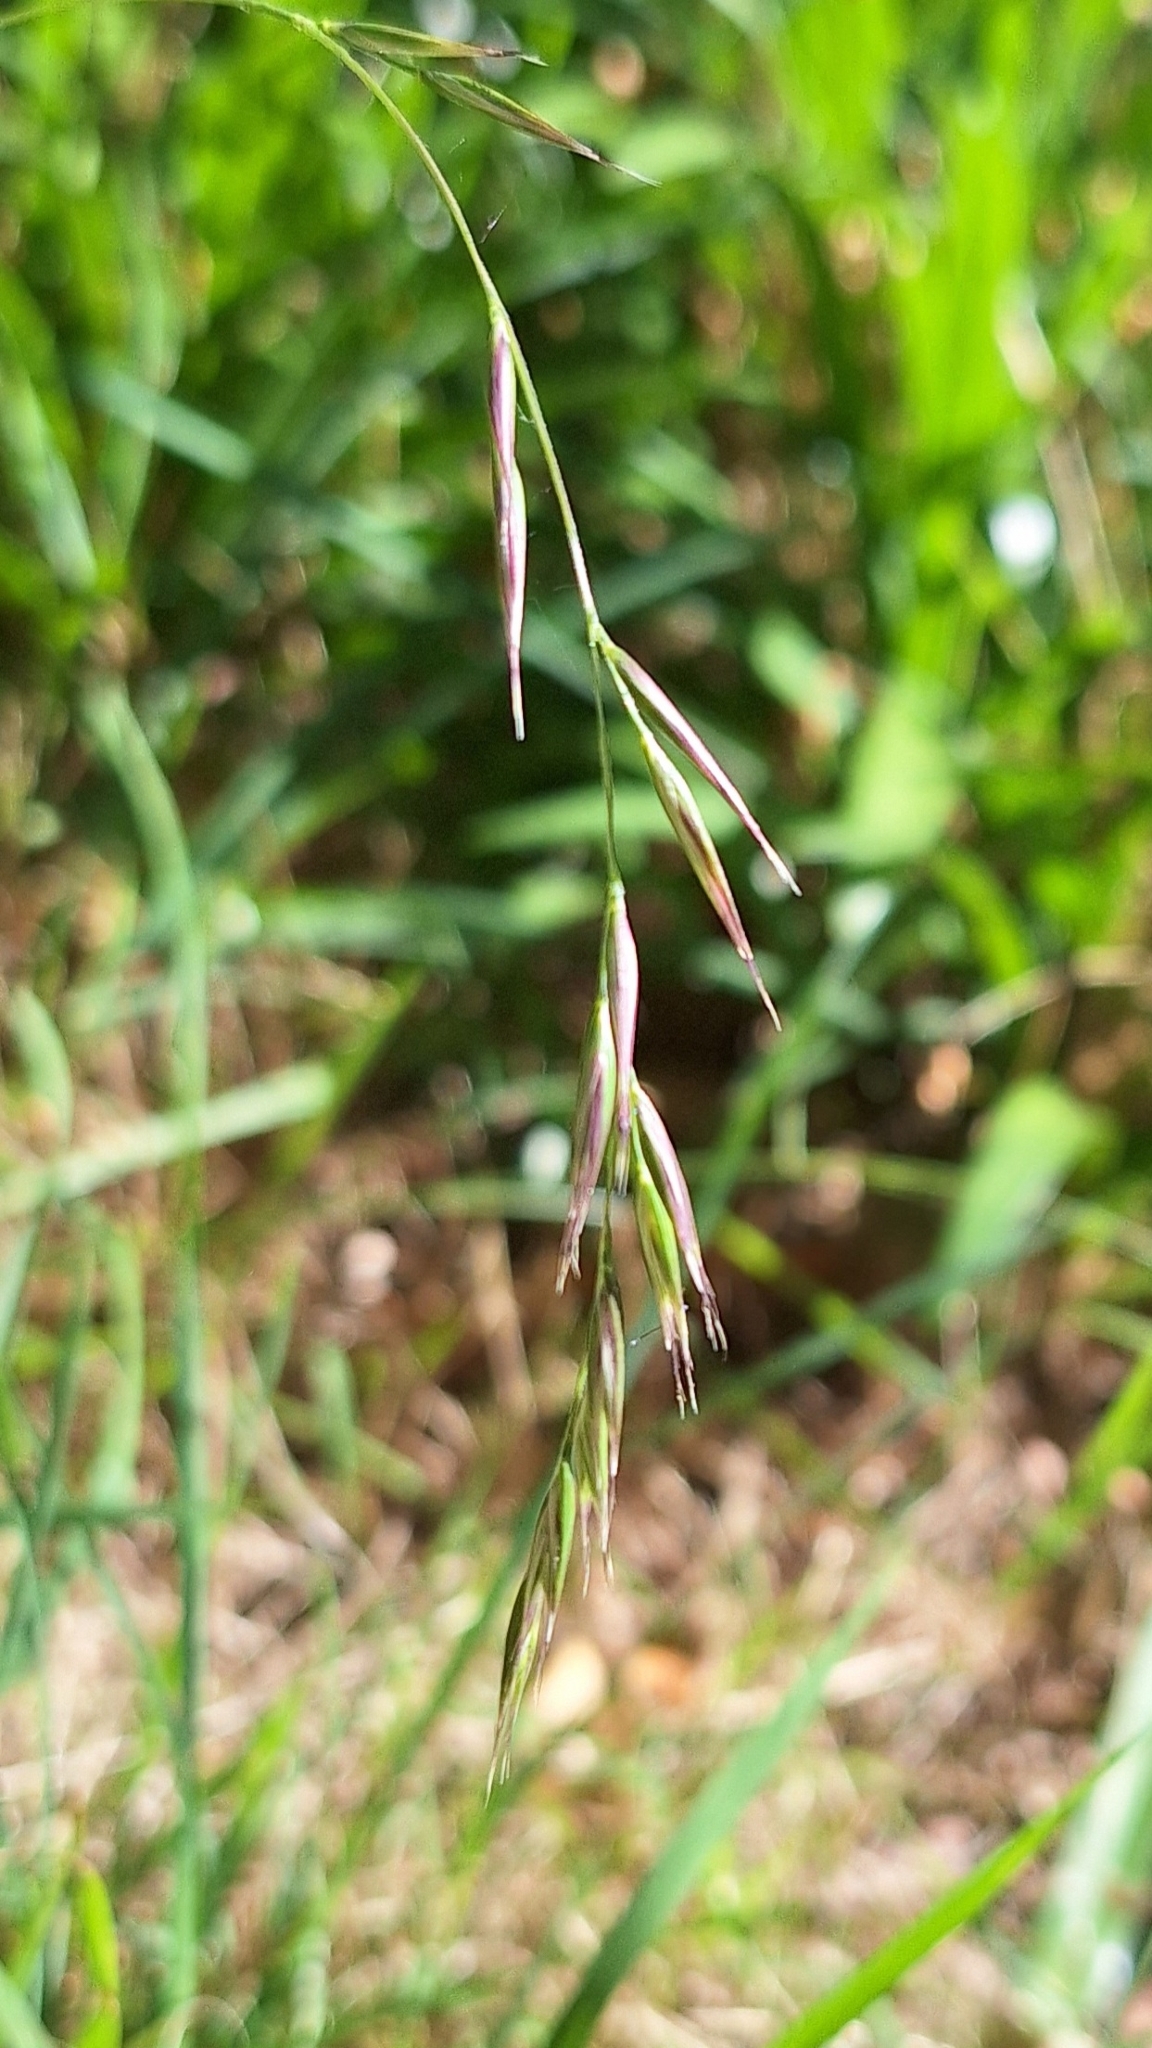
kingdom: Plantae
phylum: Tracheophyta
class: Liliopsida
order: Poales
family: Poaceae
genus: Microlaena
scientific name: Microlaena stipoides
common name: Meadow ricegrass
